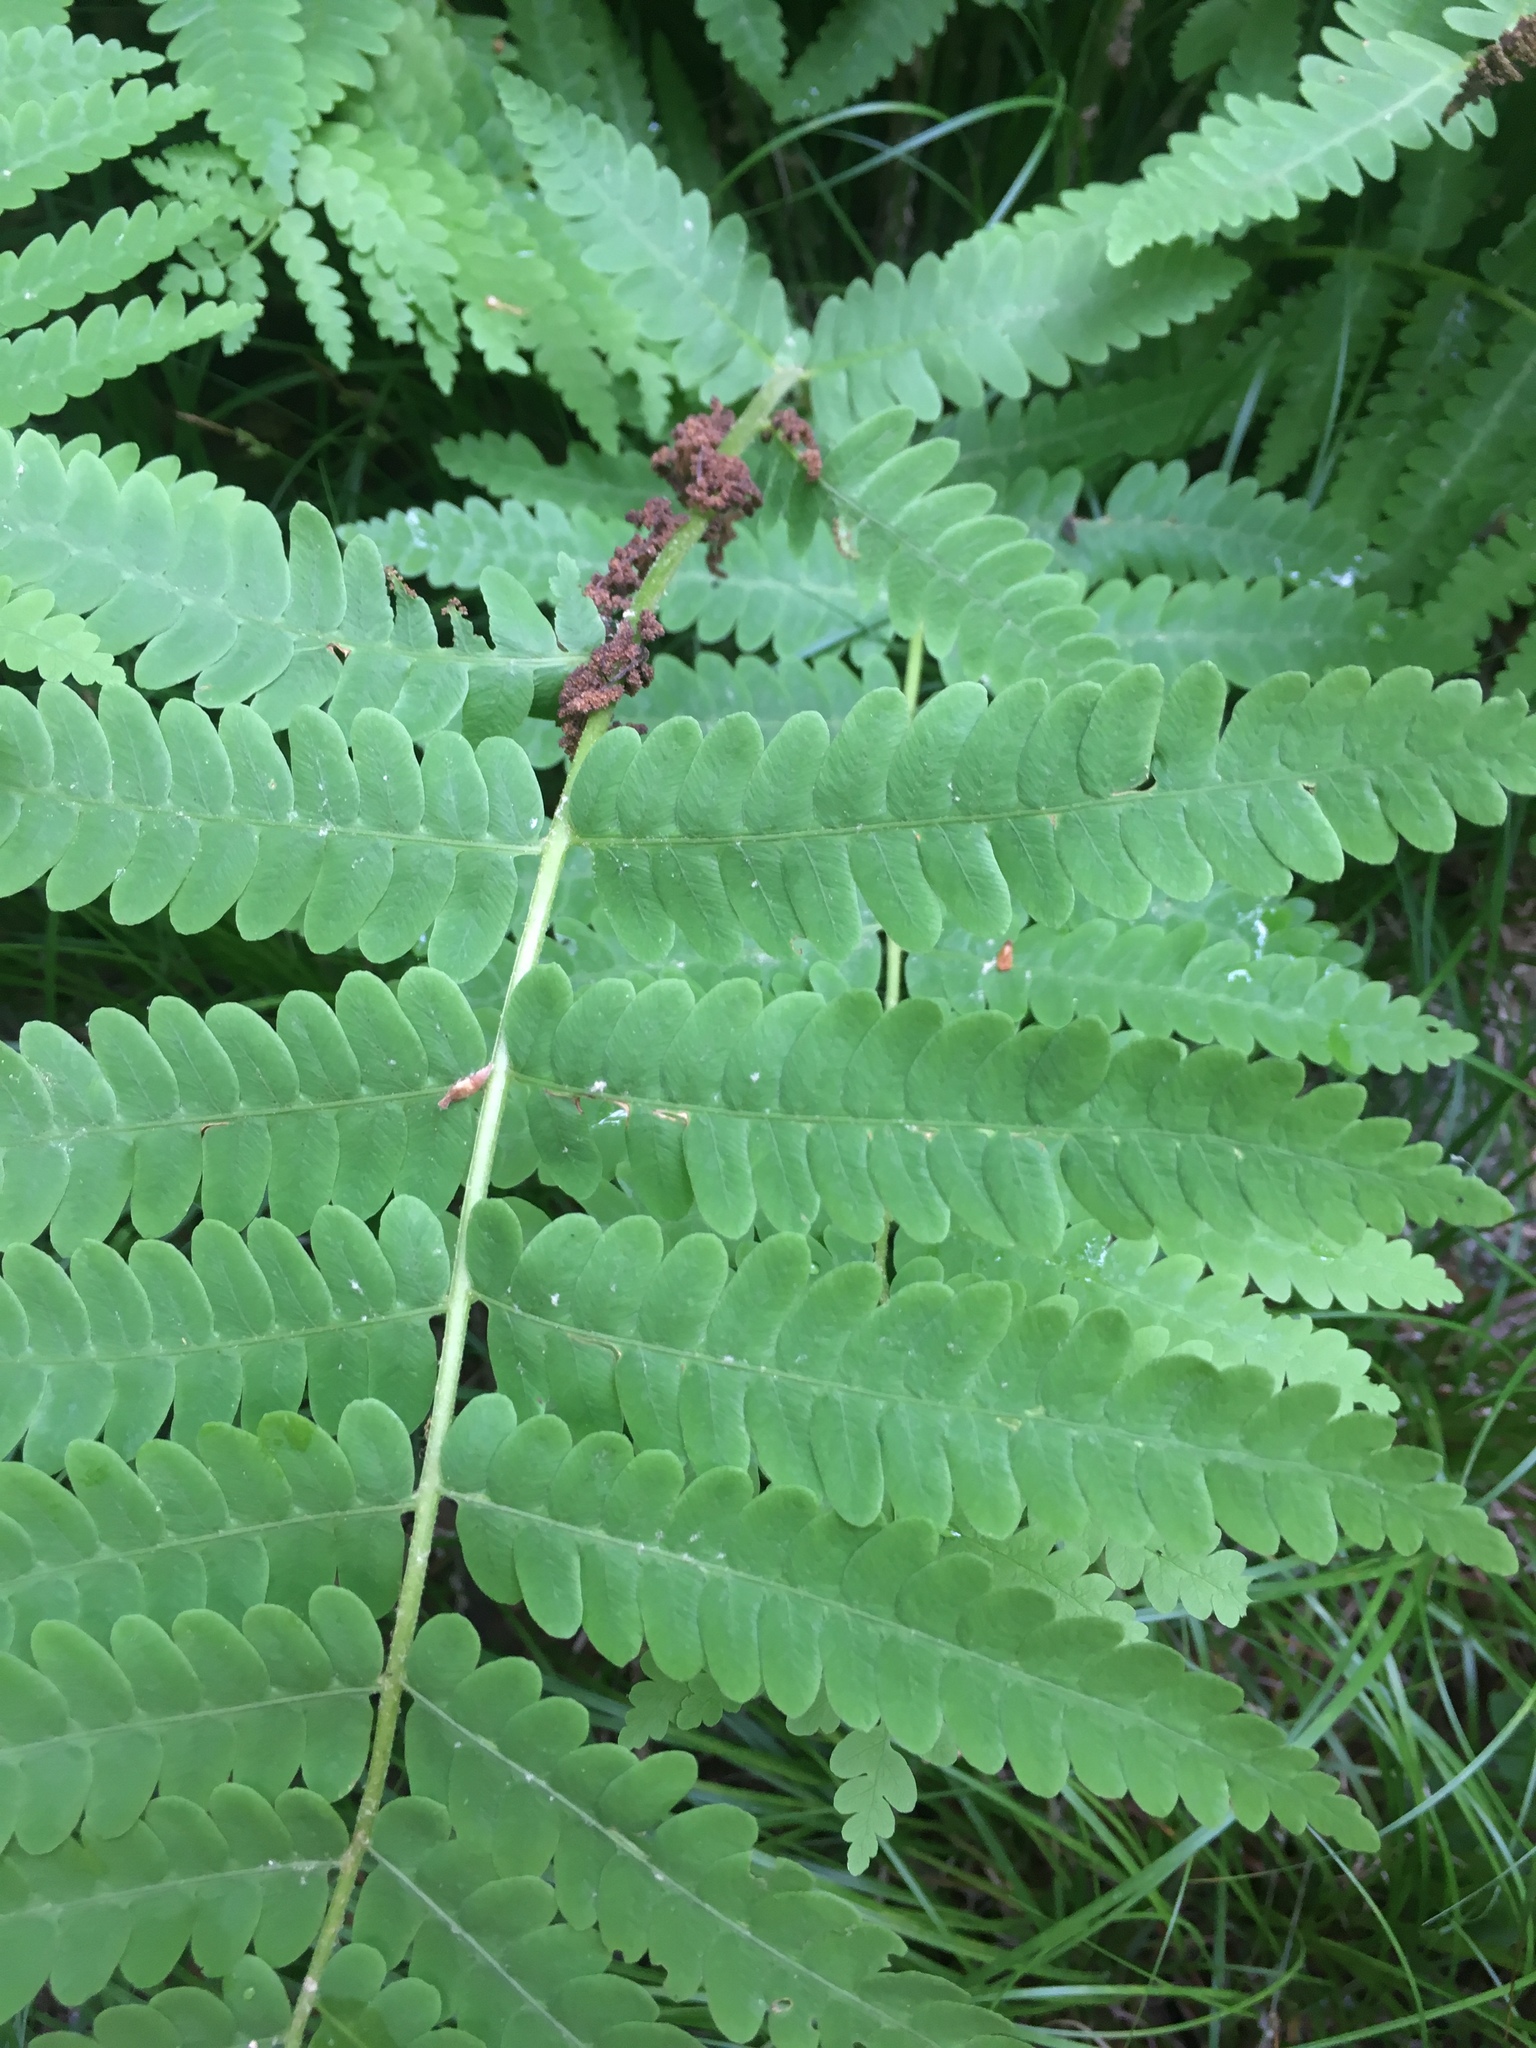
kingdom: Plantae
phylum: Tracheophyta
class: Polypodiopsida
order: Osmundales
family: Osmundaceae
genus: Claytosmunda
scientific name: Claytosmunda claytoniana
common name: Clayton's fern
